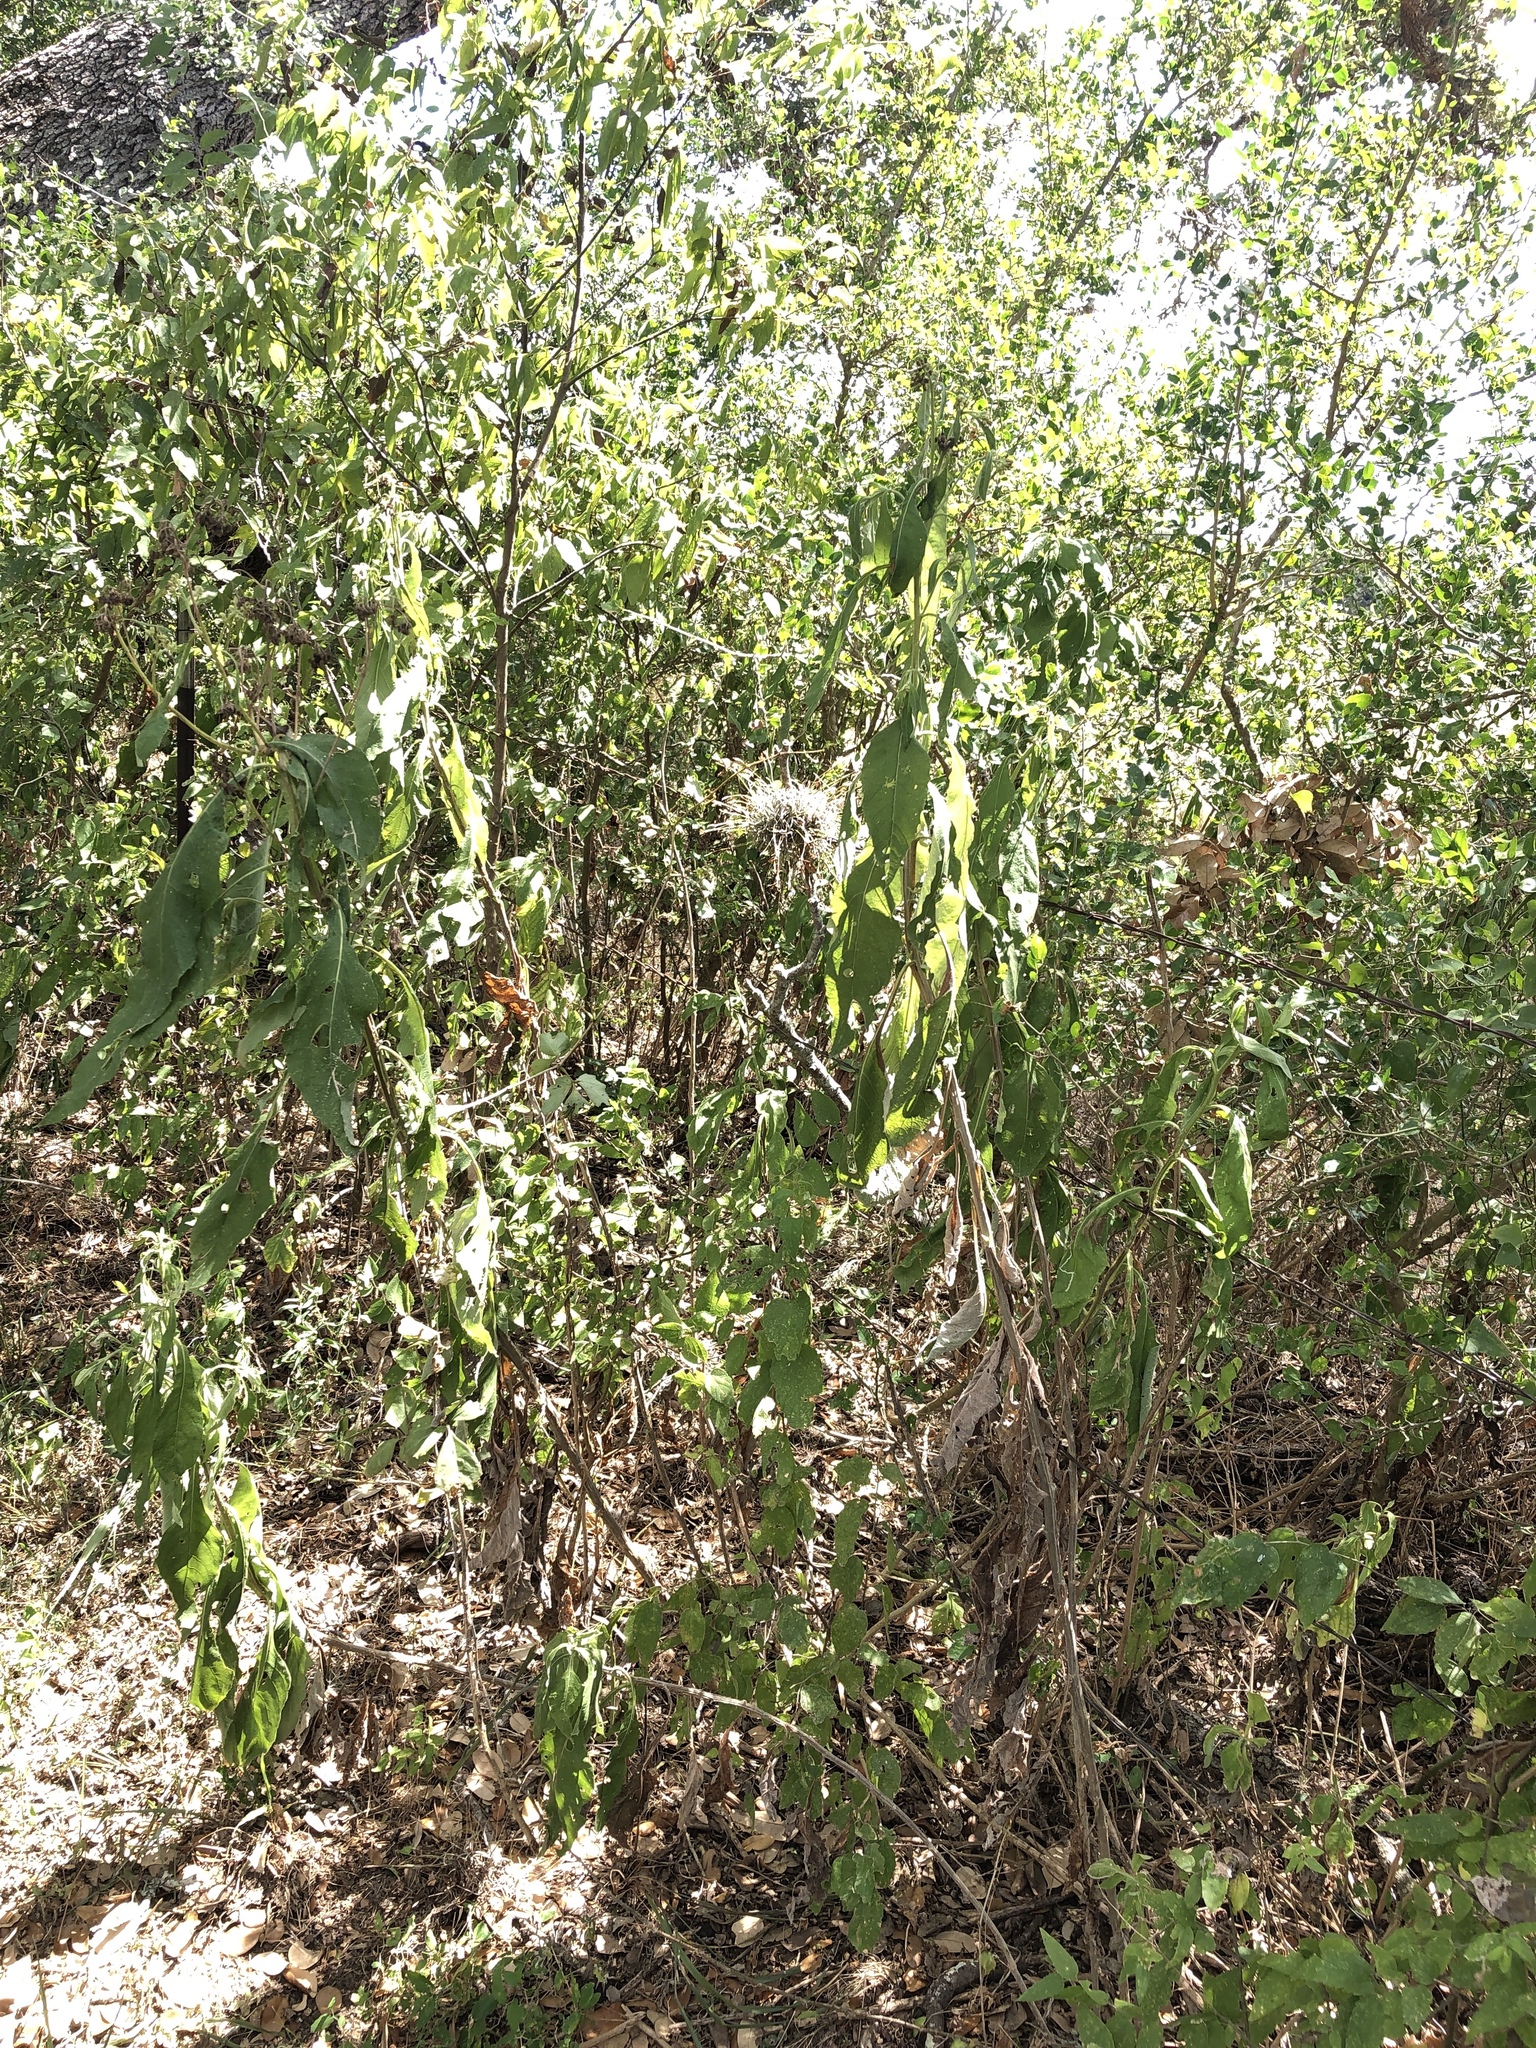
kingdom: Plantae
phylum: Tracheophyta
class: Magnoliopsida
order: Asterales
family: Asteraceae
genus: Verbesina
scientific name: Verbesina virginica
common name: Frostweed
